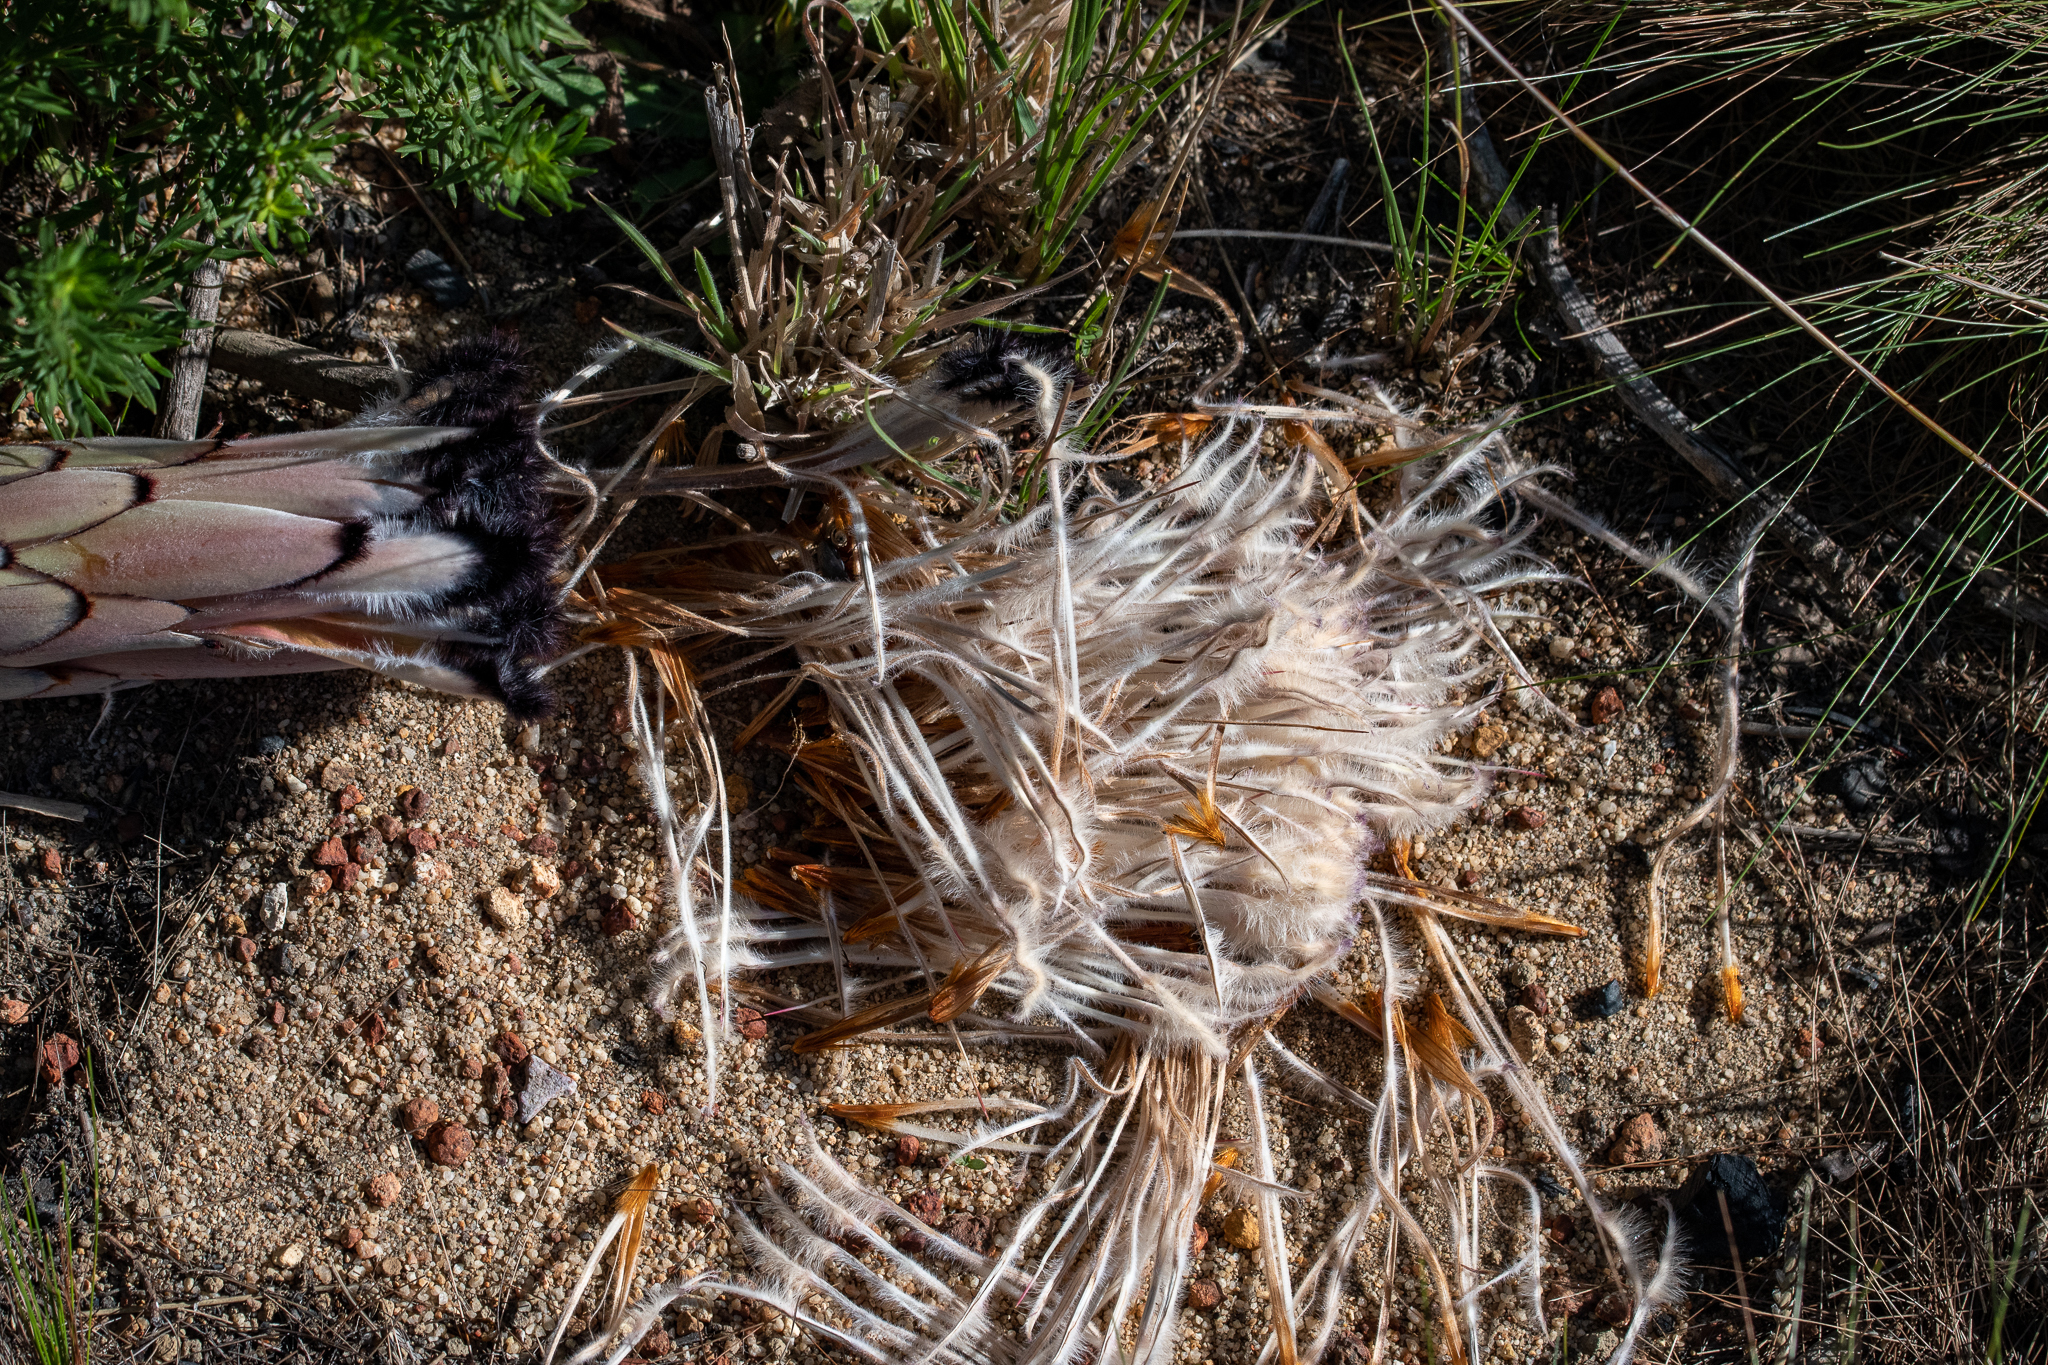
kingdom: Plantae
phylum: Tracheophyta
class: Magnoliopsida
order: Proteales
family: Proteaceae
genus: Protea
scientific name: Protea neriifolia
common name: Blue sugarbush
